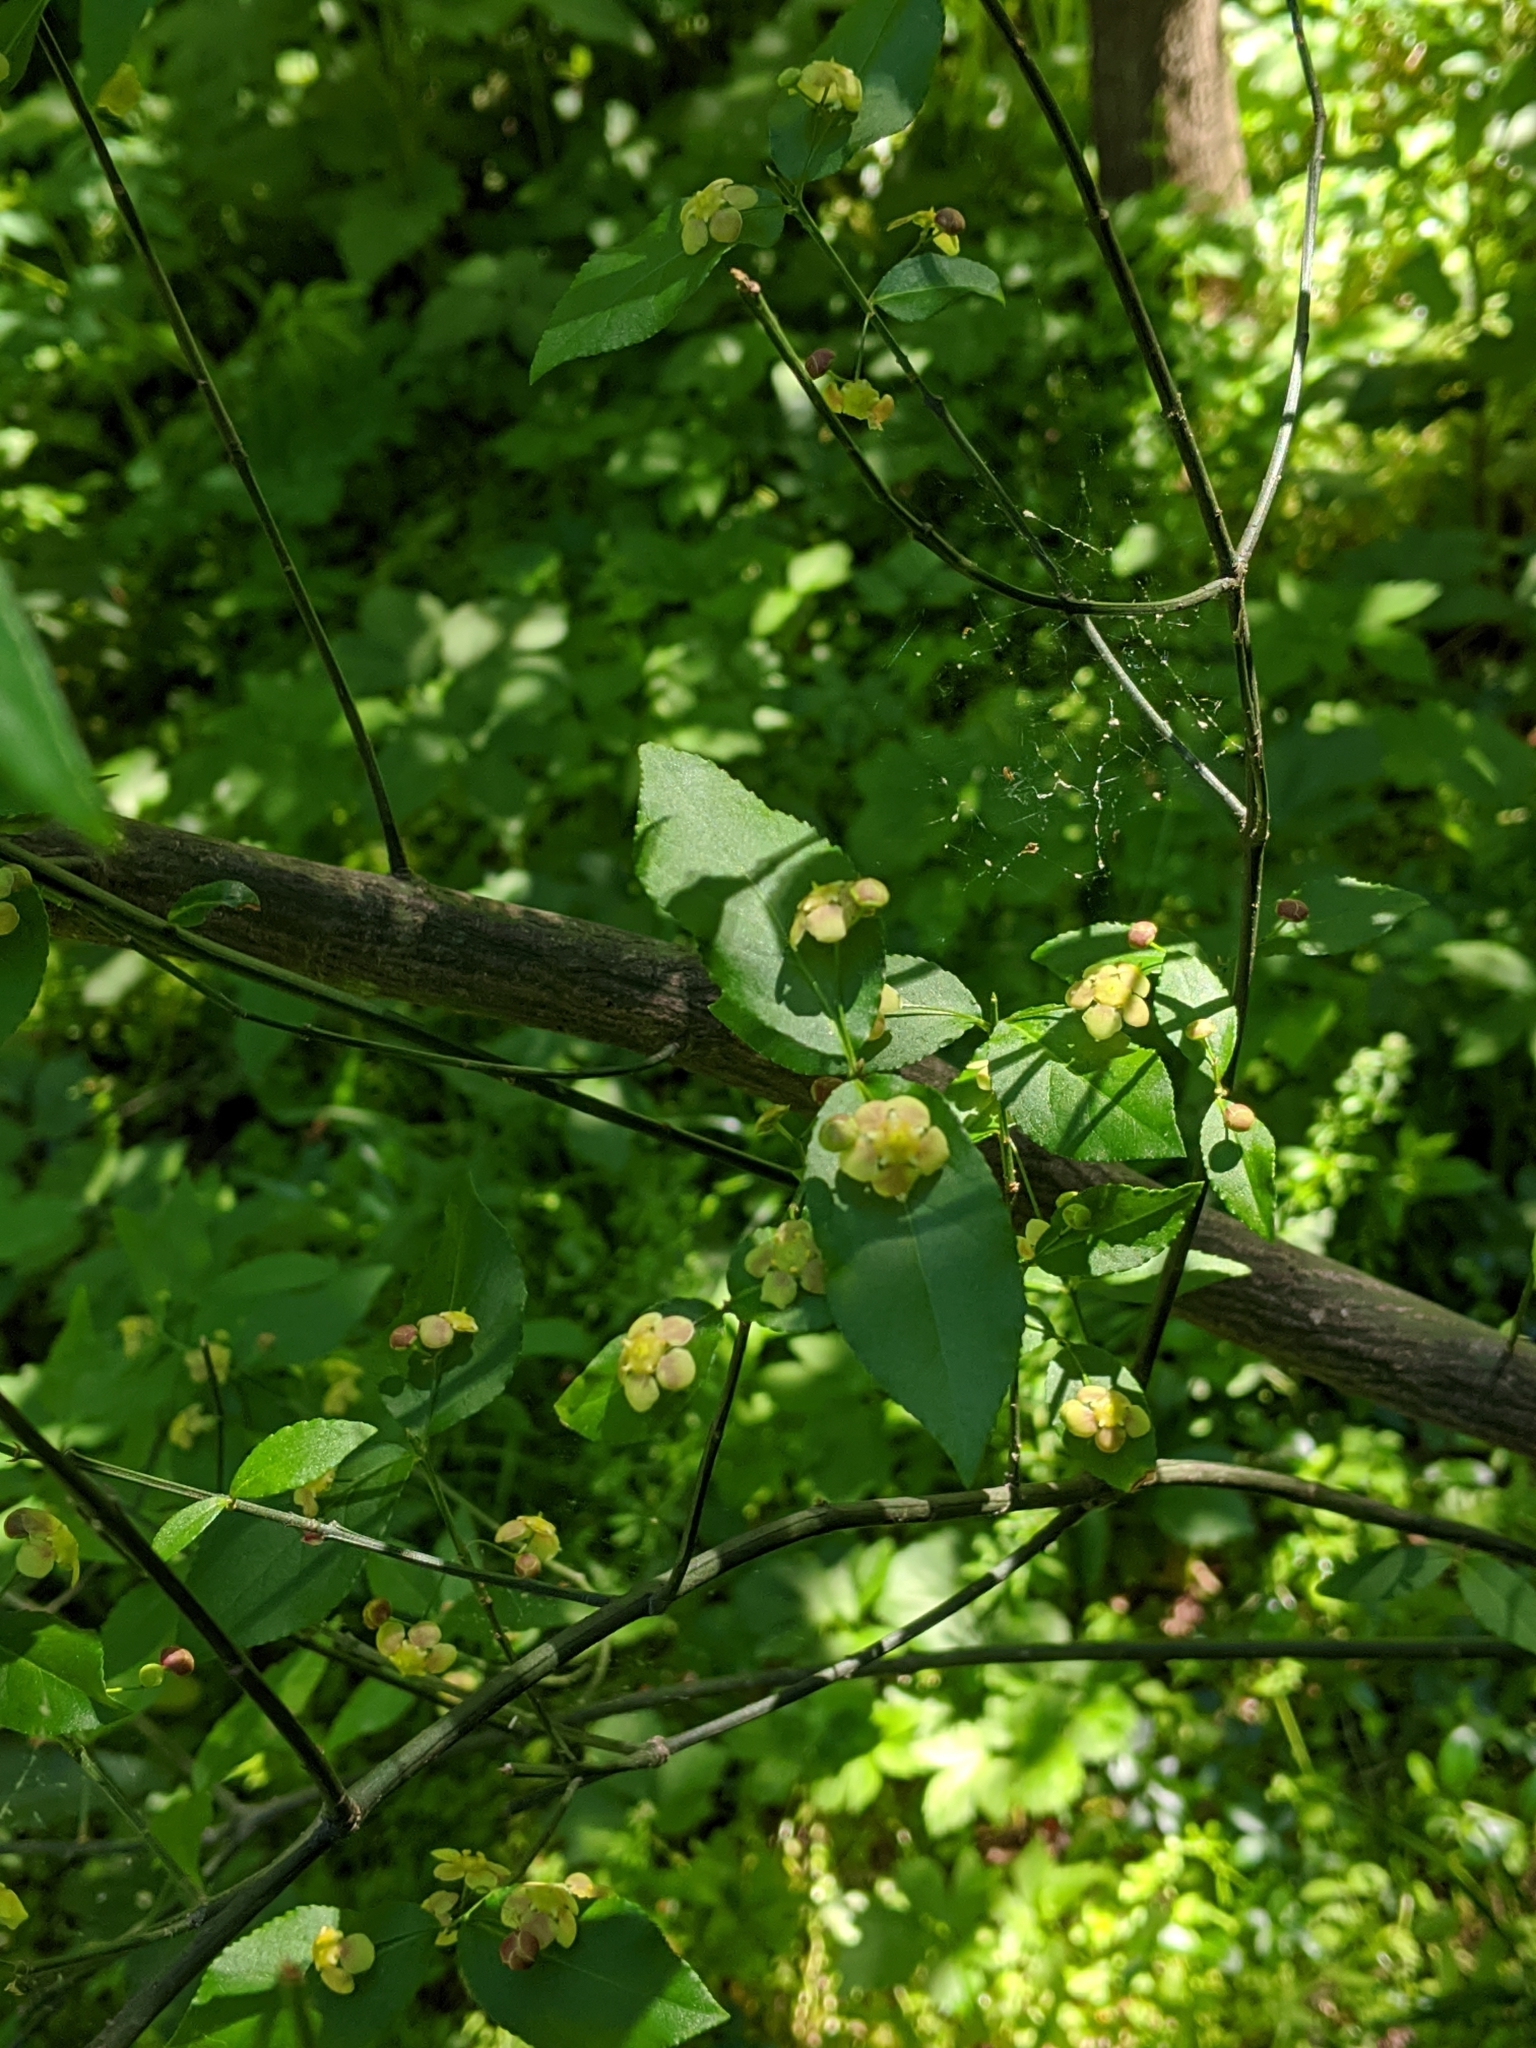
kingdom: Plantae
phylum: Tracheophyta
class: Magnoliopsida
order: Celastrales
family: Celastraceae
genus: Euonymus
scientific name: Euonymus americanus
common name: Bursting-heart
